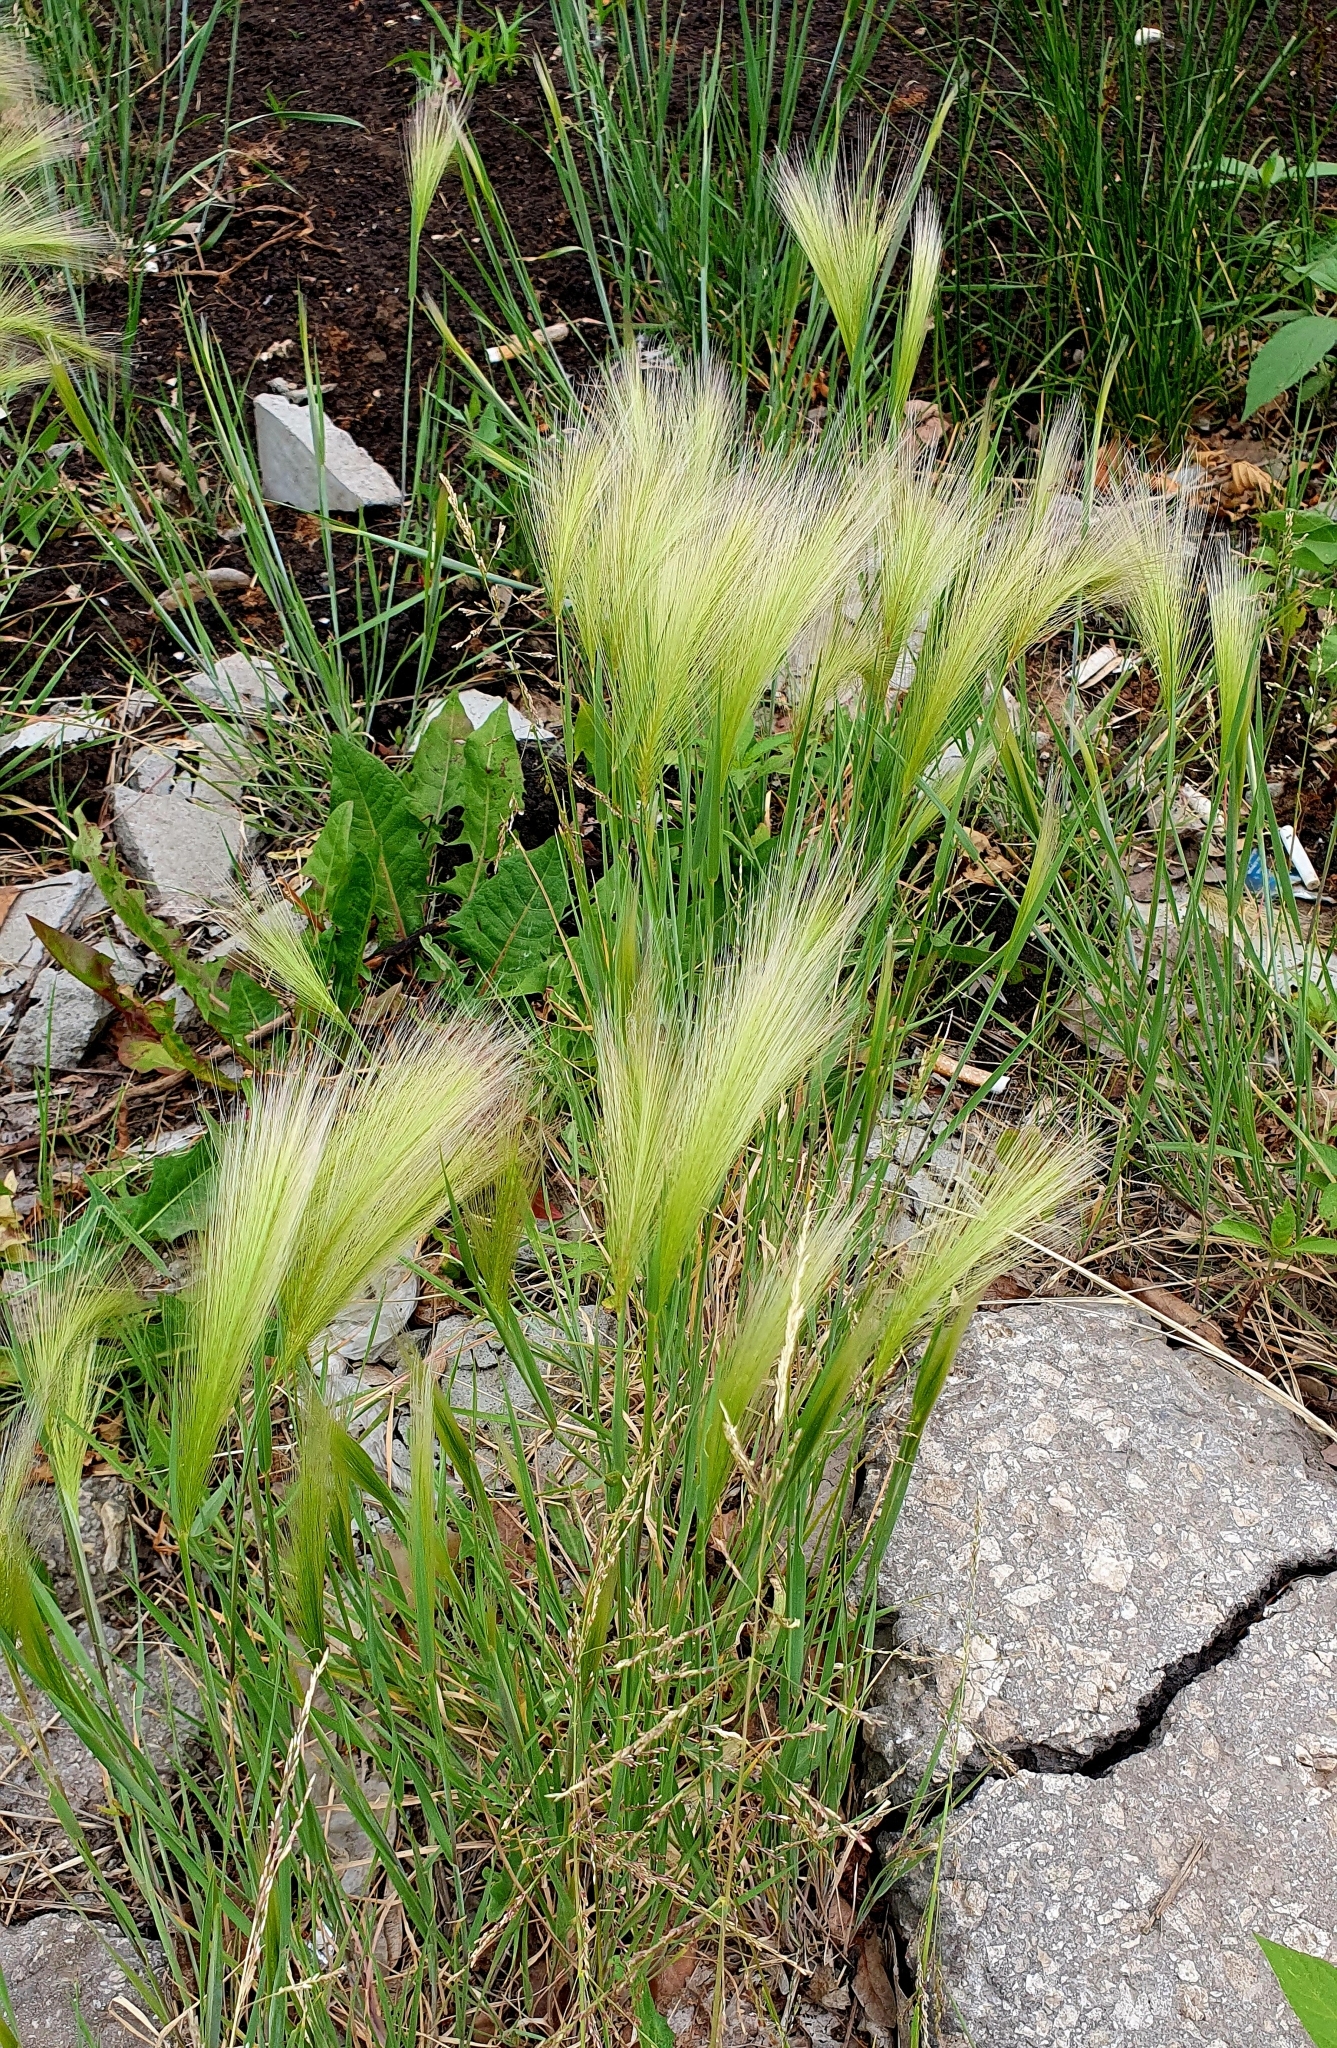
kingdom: Plantae
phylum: Tracheophyta
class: Liliopsida
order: Poales
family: Poaceae
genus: Hordeum
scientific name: Hordeum jubatum
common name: Foxtail barley
